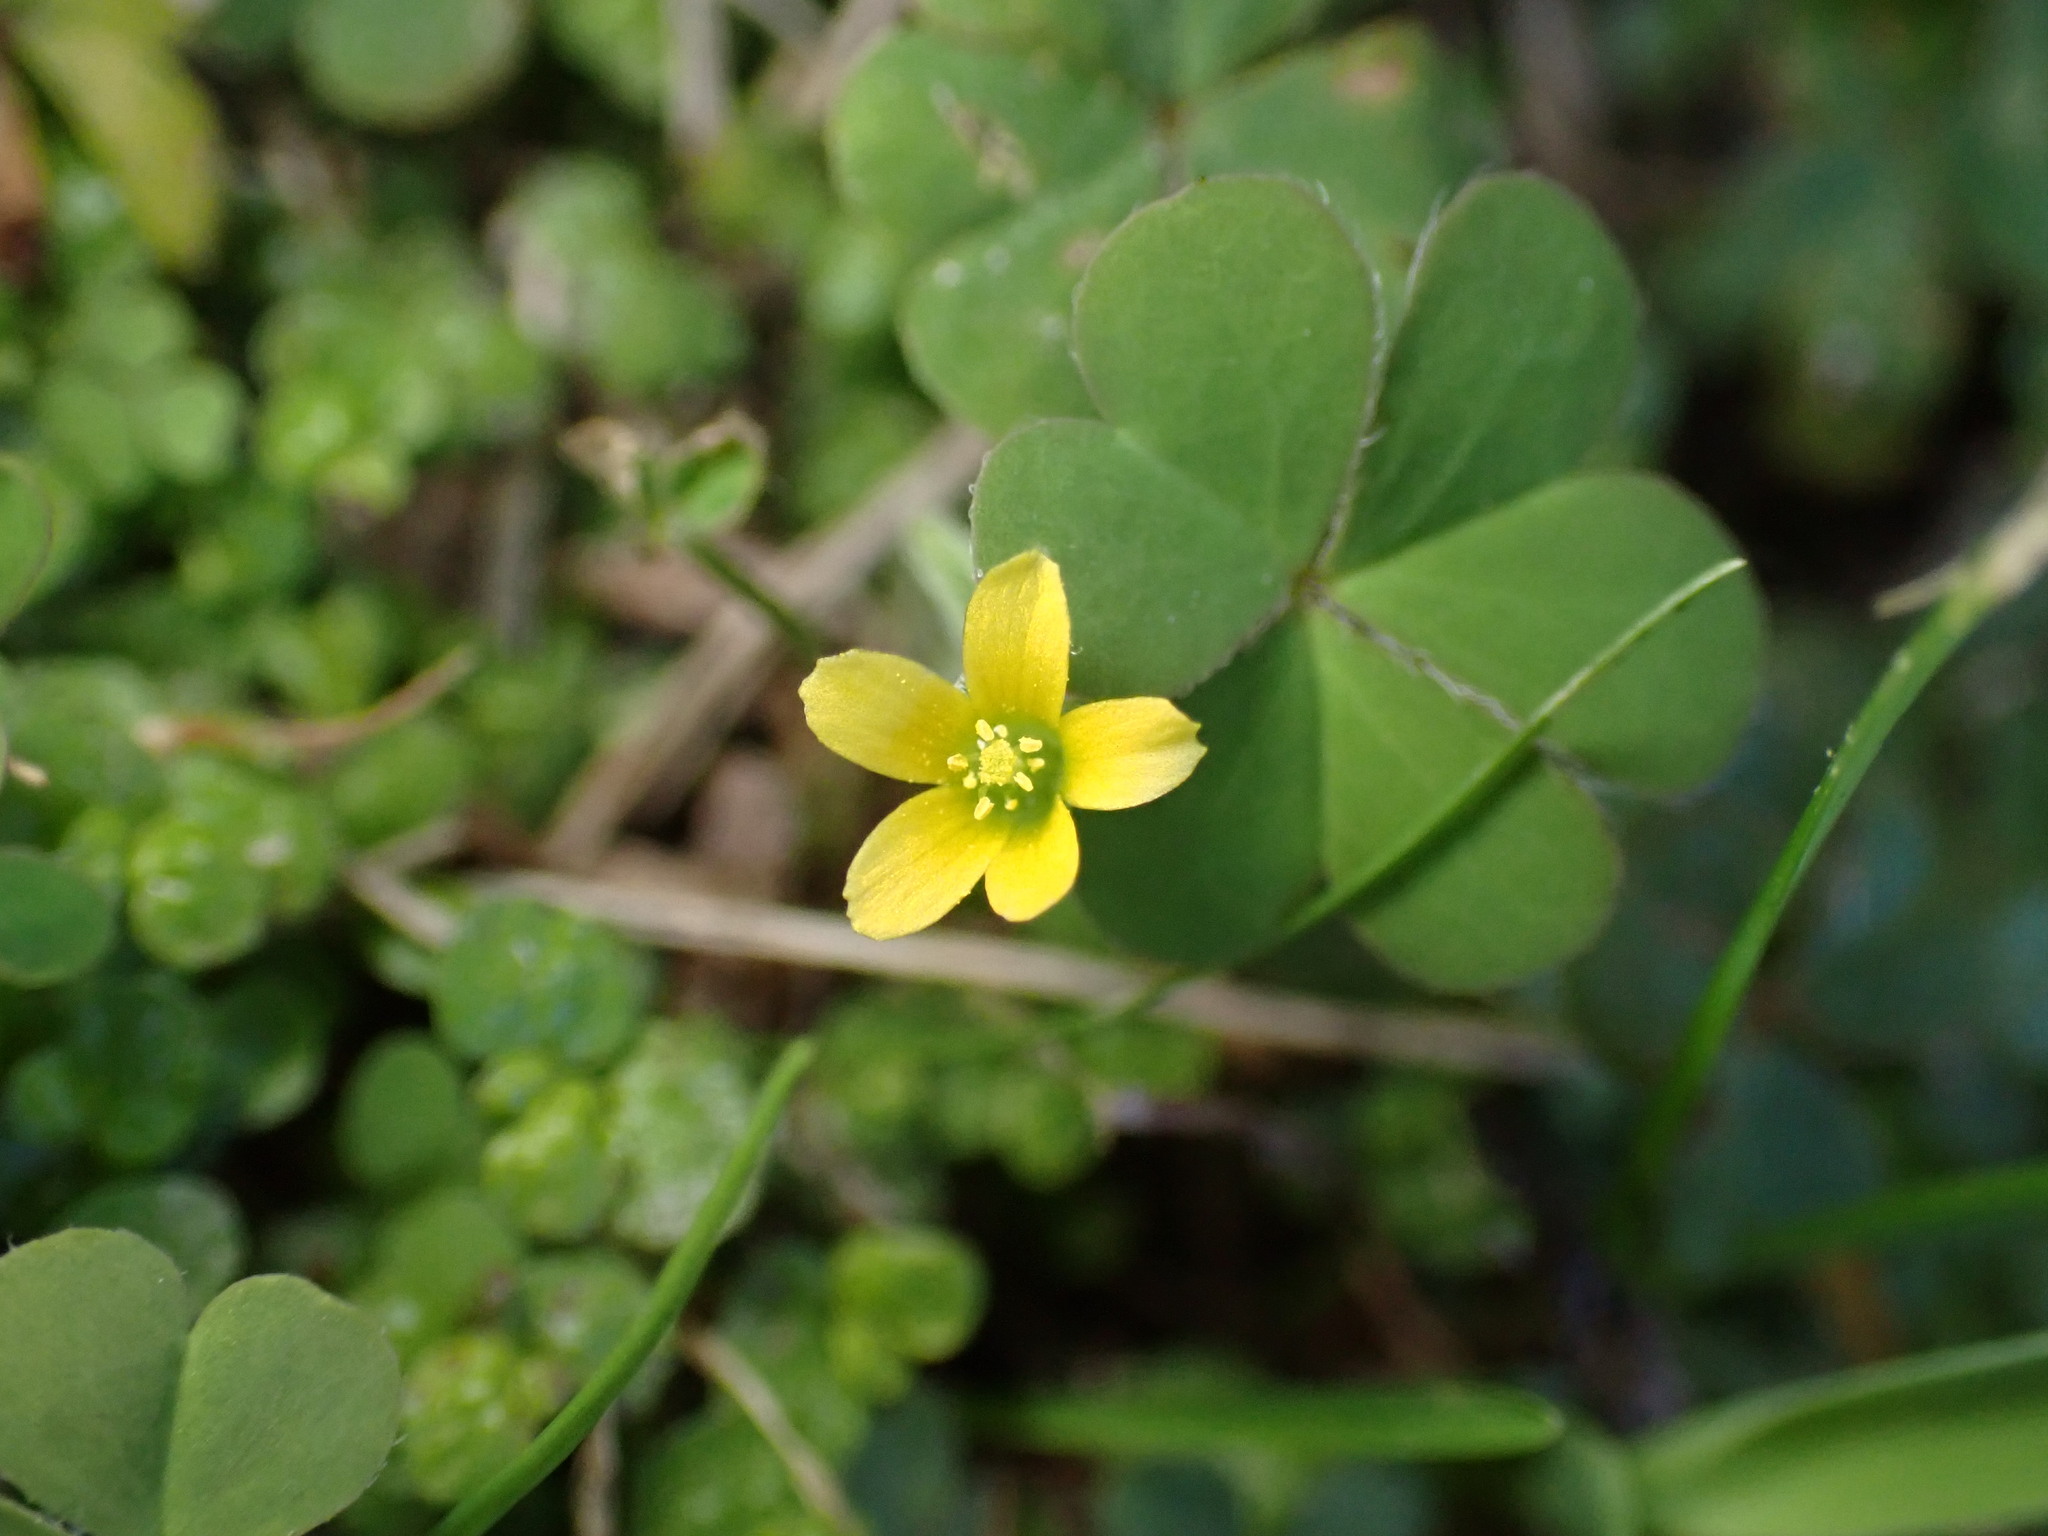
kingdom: Plantae
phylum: Tracheophyta
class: Magnoliopsida
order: Oxalidales
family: Oxalidaceae
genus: Oxalis
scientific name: Oxalis corniculata
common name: Procumbent yellow-sorrel
